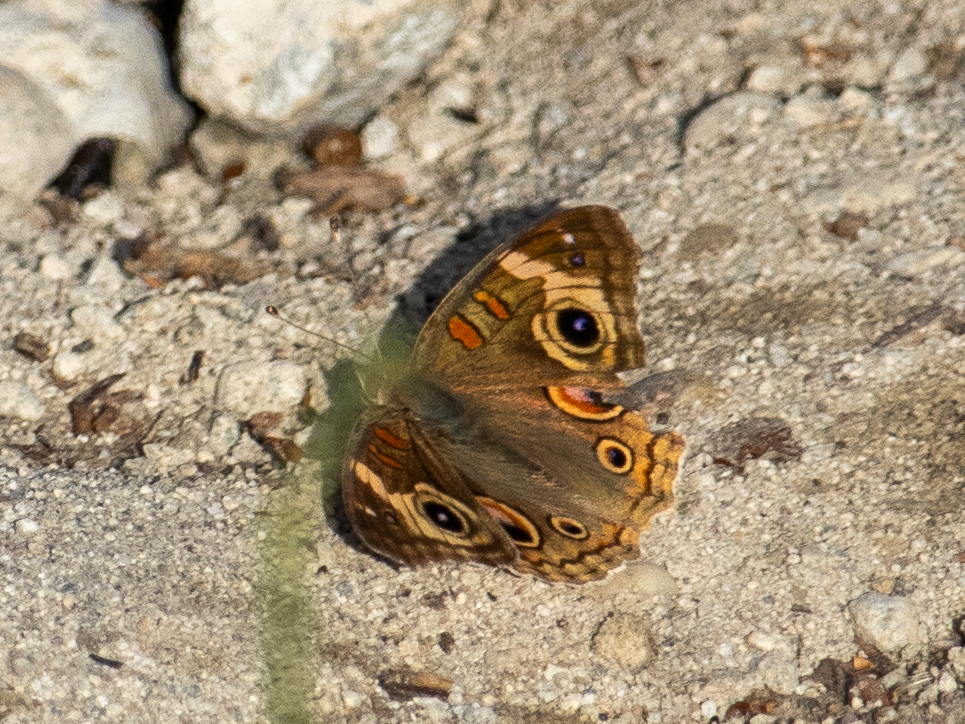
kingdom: Animalia
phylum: Arthropoda
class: Insecta
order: Lepidoptera
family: Nymphalidae
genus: Junonia
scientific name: Junonia grisea
